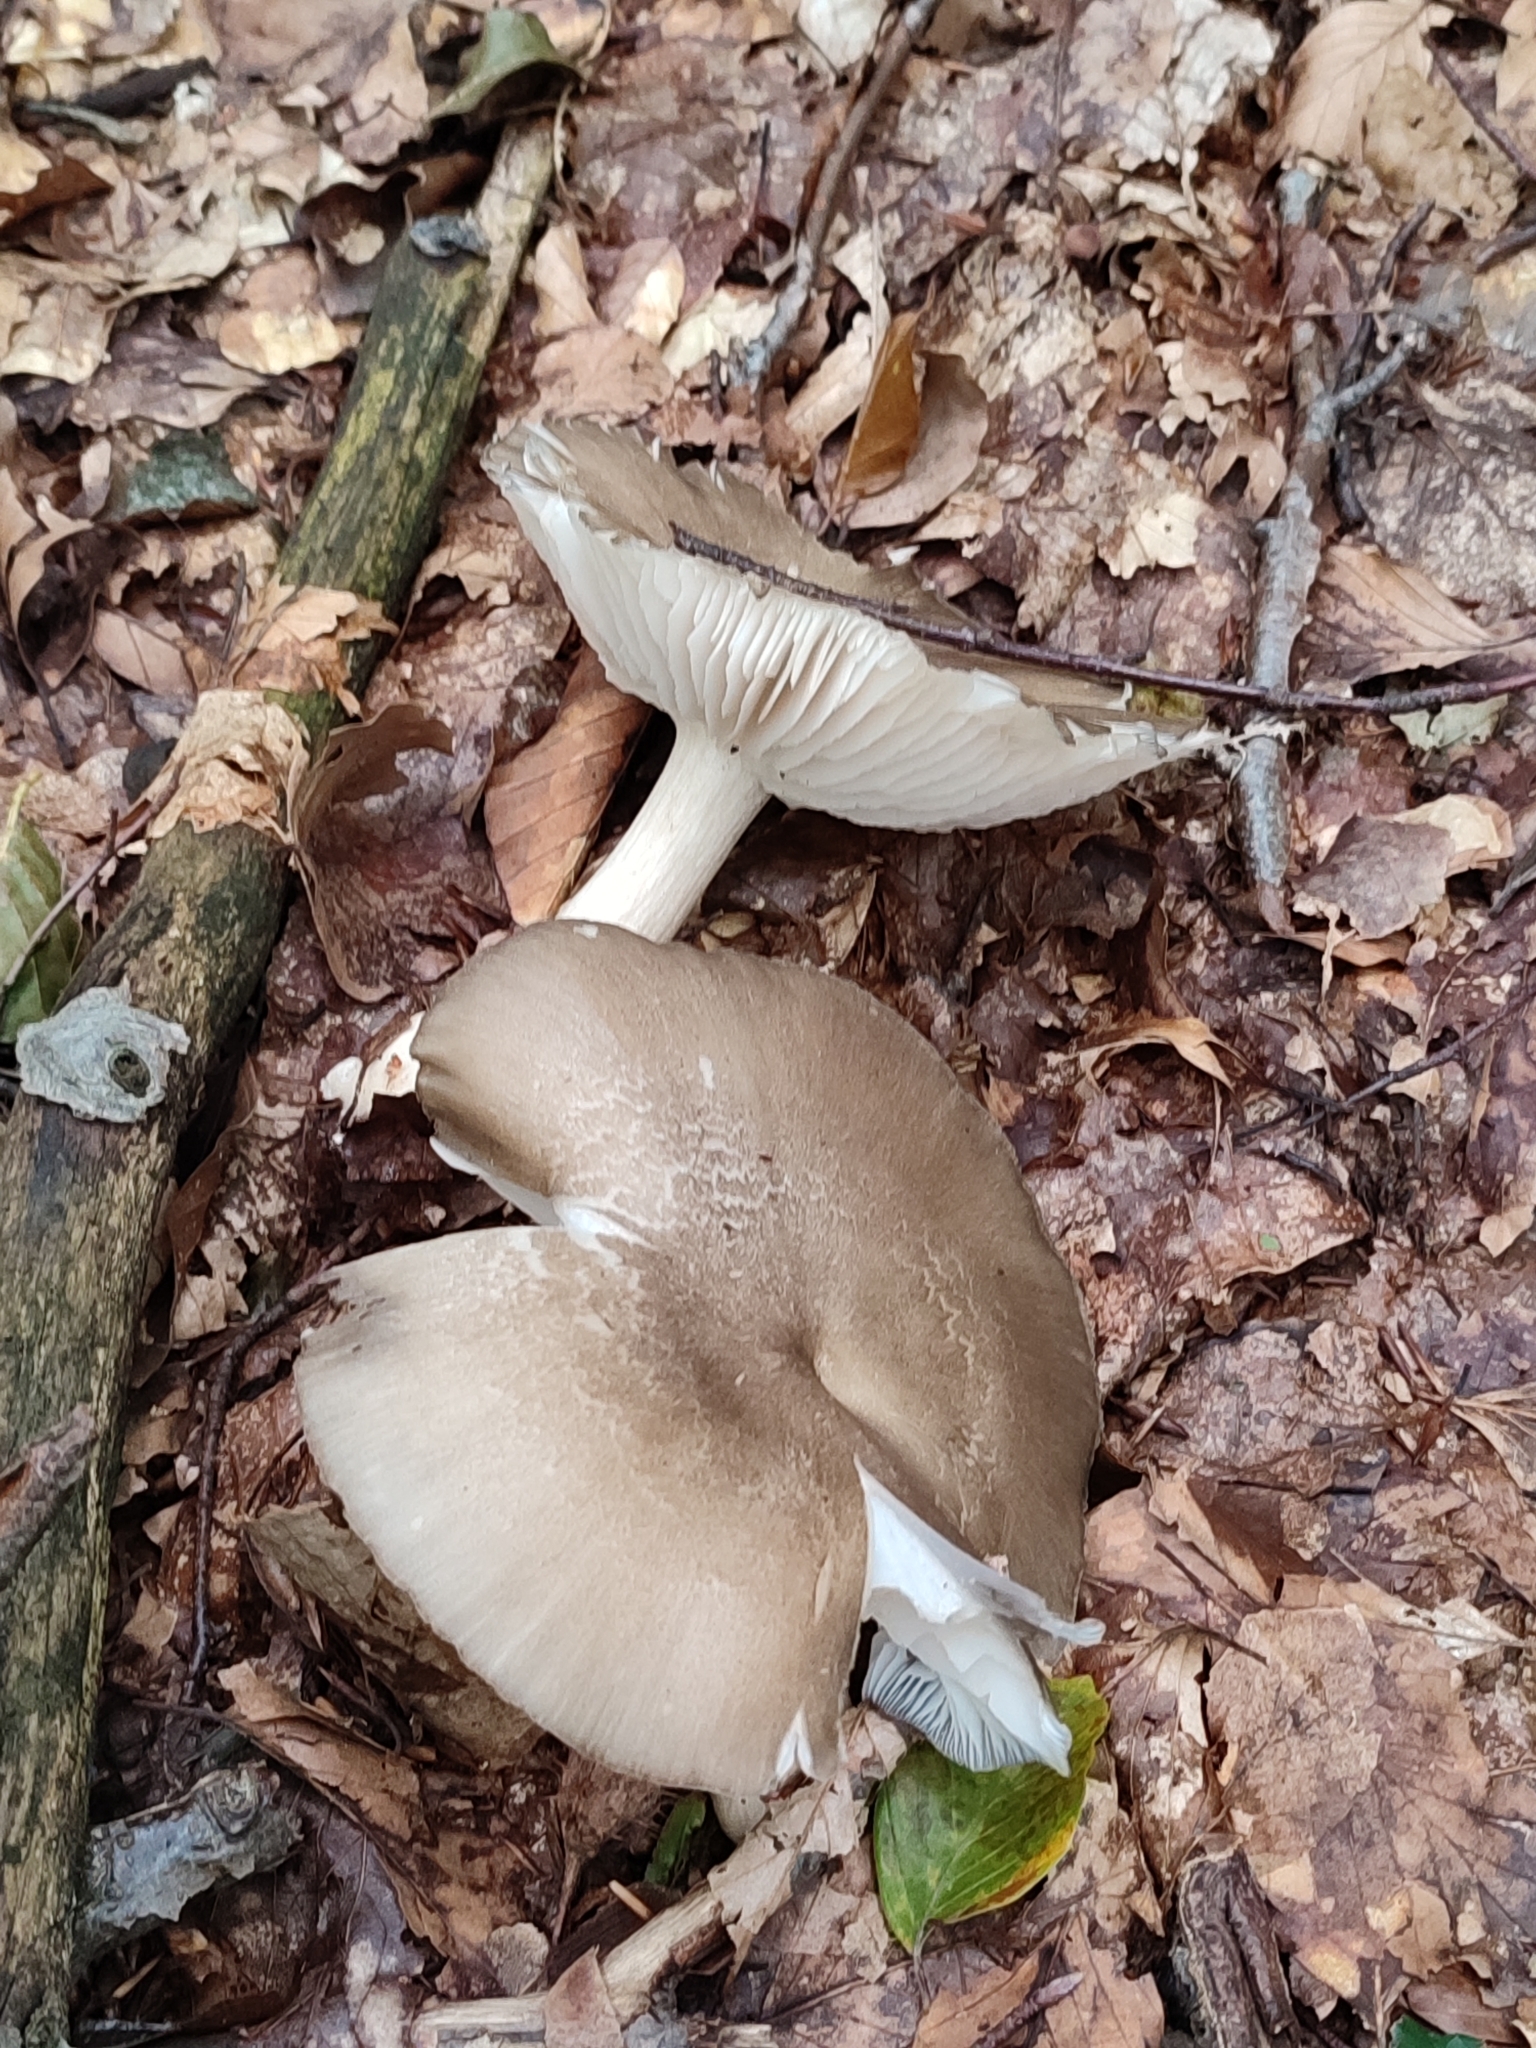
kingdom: Fungi
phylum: Basidiomycota
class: Agaricomycetes
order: Agaricales
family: Tricholomataceae
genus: Megacollybia
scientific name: Megacollybia platyphylla
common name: Whitelaced shank
